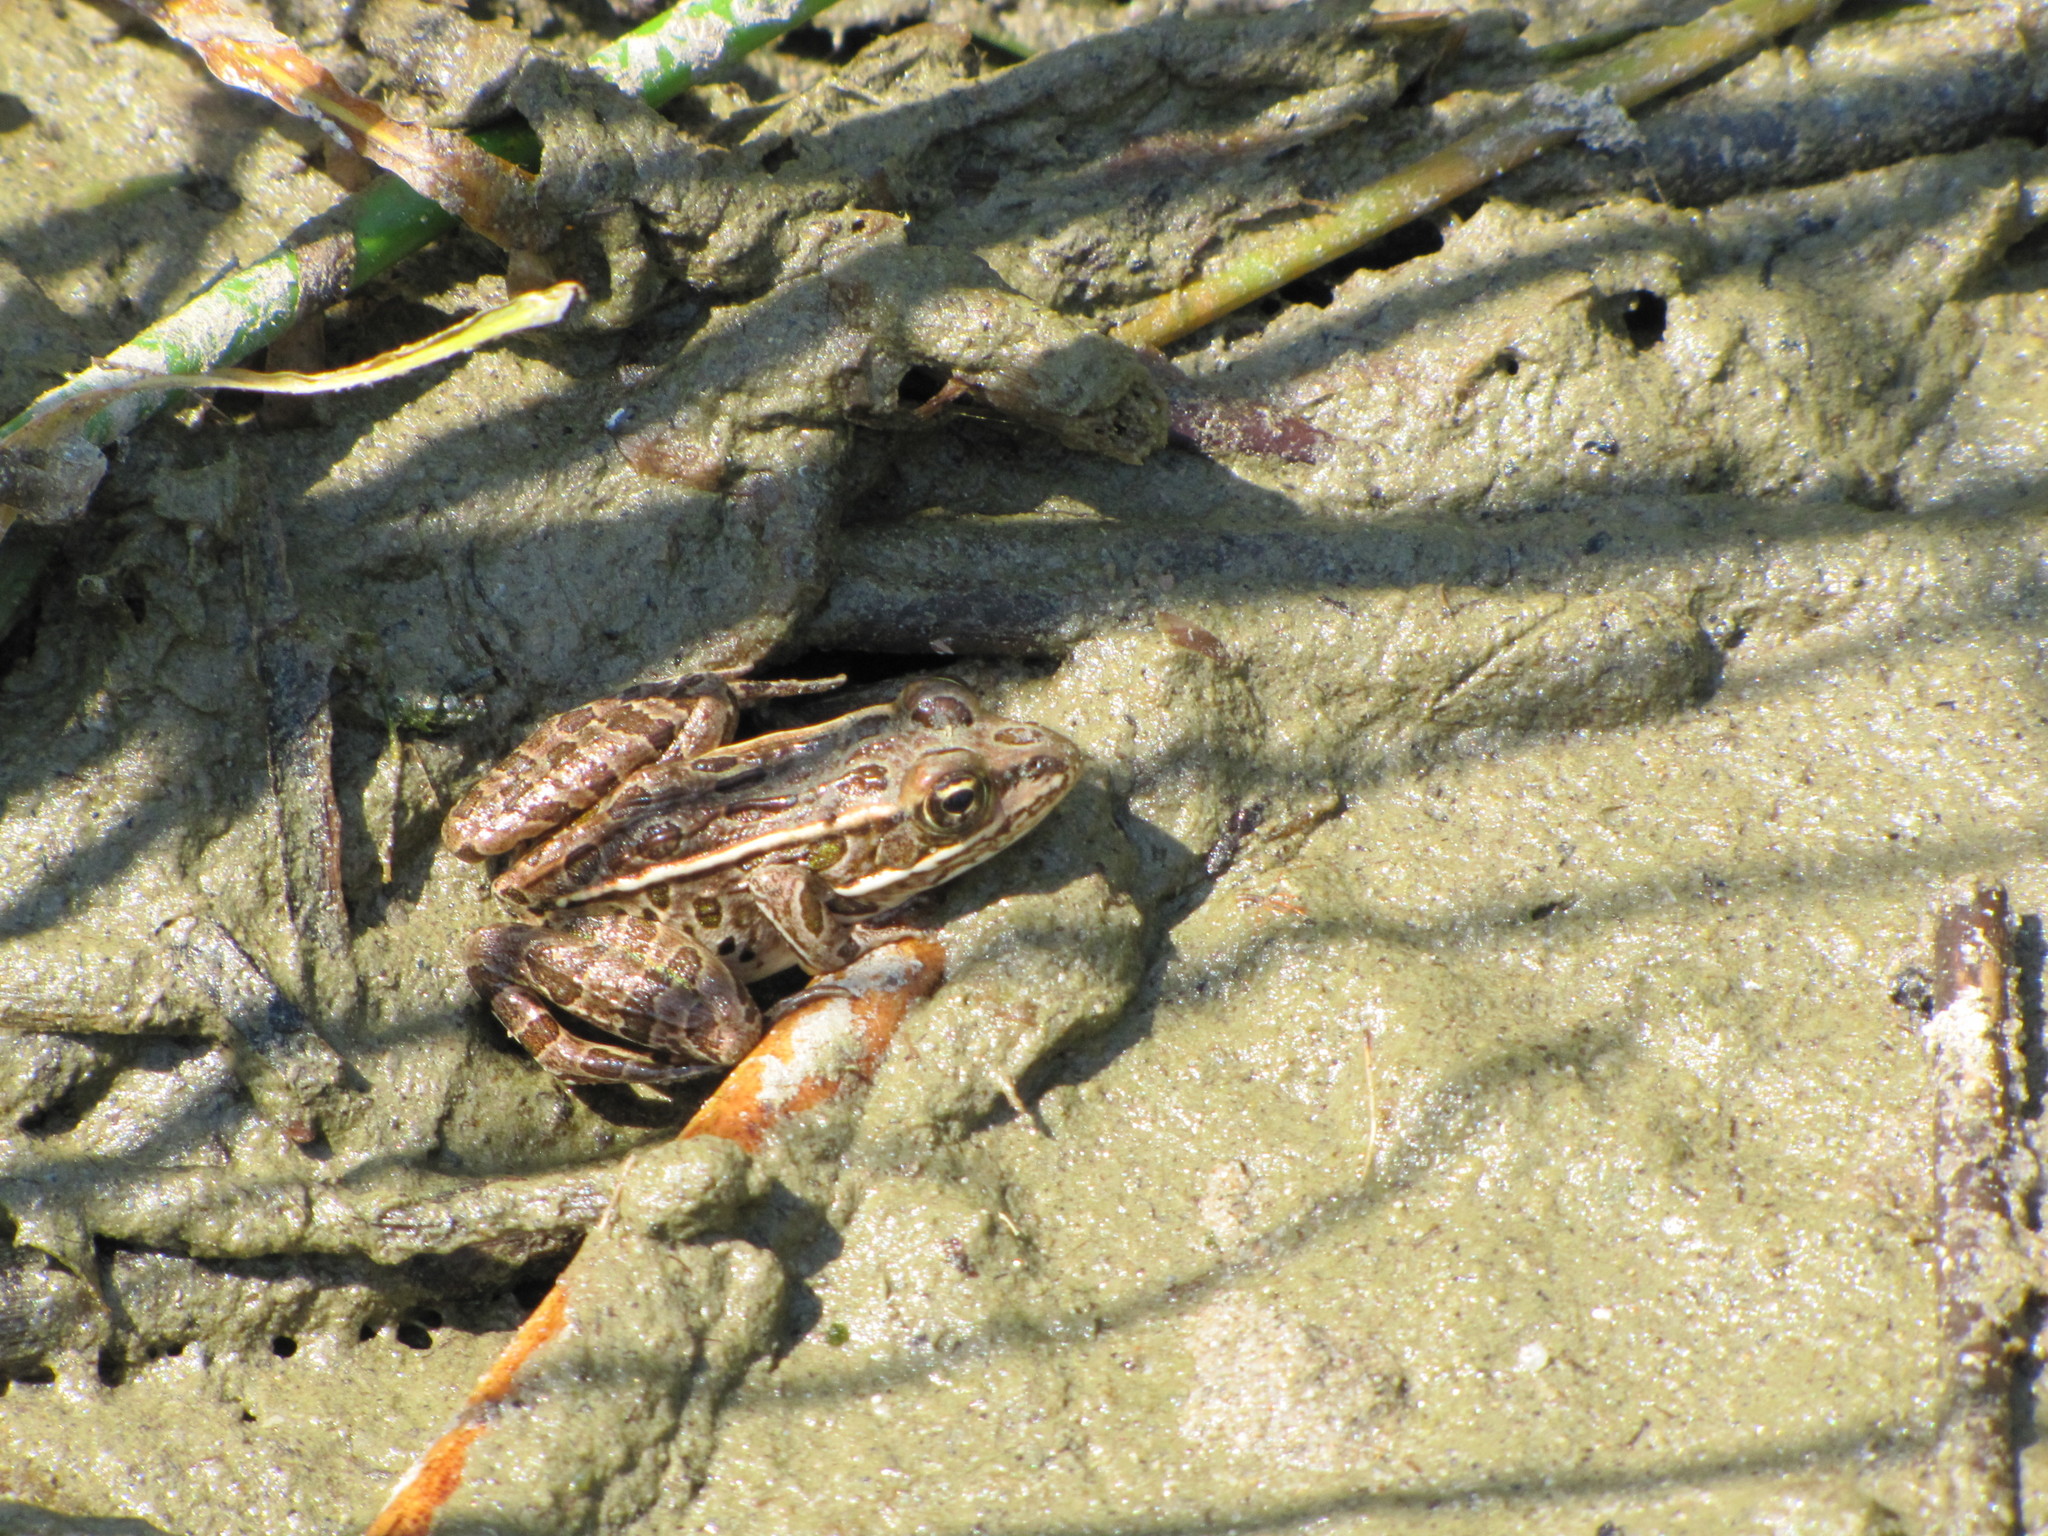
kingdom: Animalia
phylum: Chordata
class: Amphibia
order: Anura
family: Ranidae
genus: Lithobates
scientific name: Lithobates pipiens
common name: Northern leopard frog
